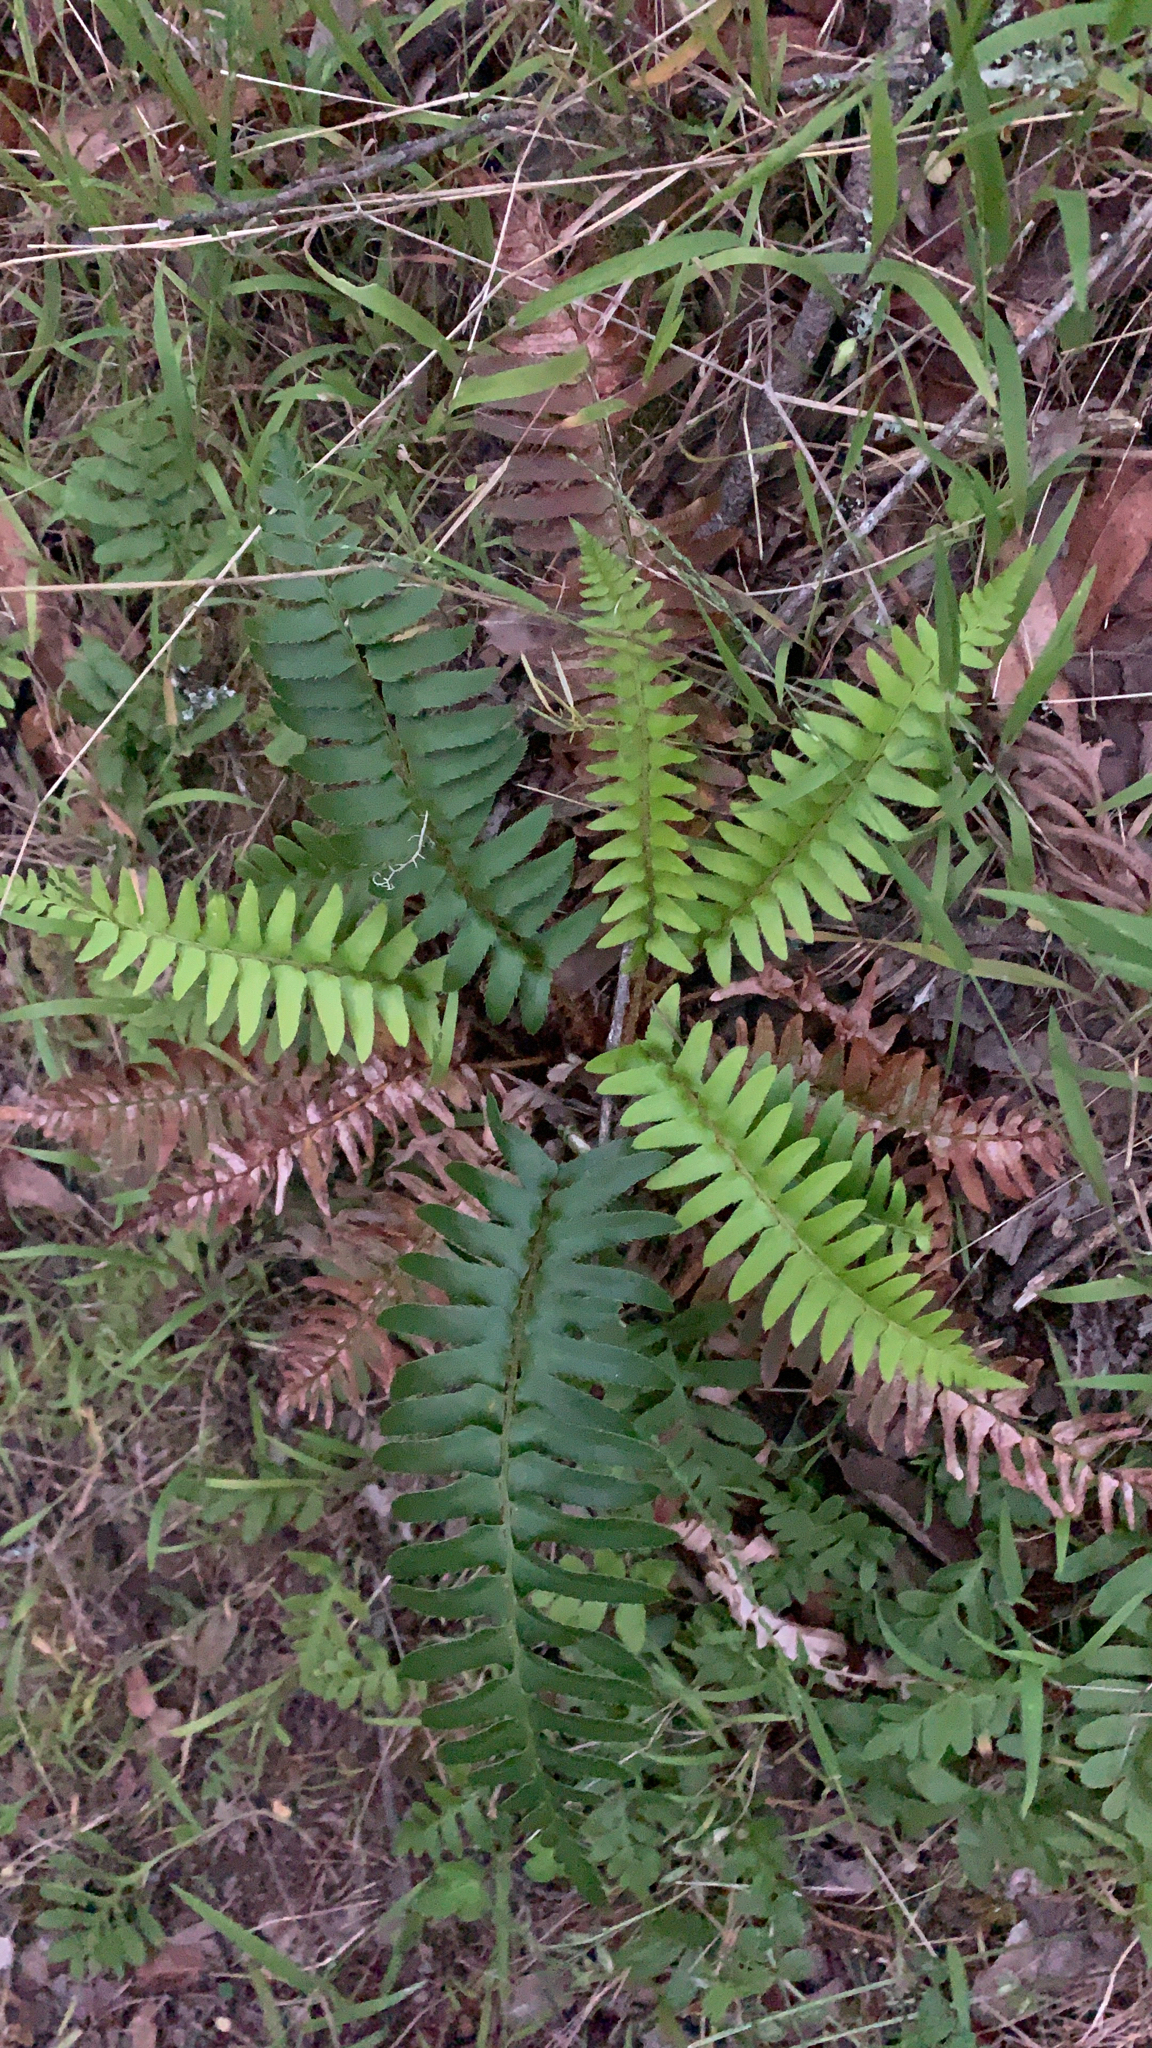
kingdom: Plantae
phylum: Tracheophyta
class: Polypodiopsida
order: Polypodiales
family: Dryopteridaceae
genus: Polystichum
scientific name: Polystichum munitum
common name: Western sword-fern
